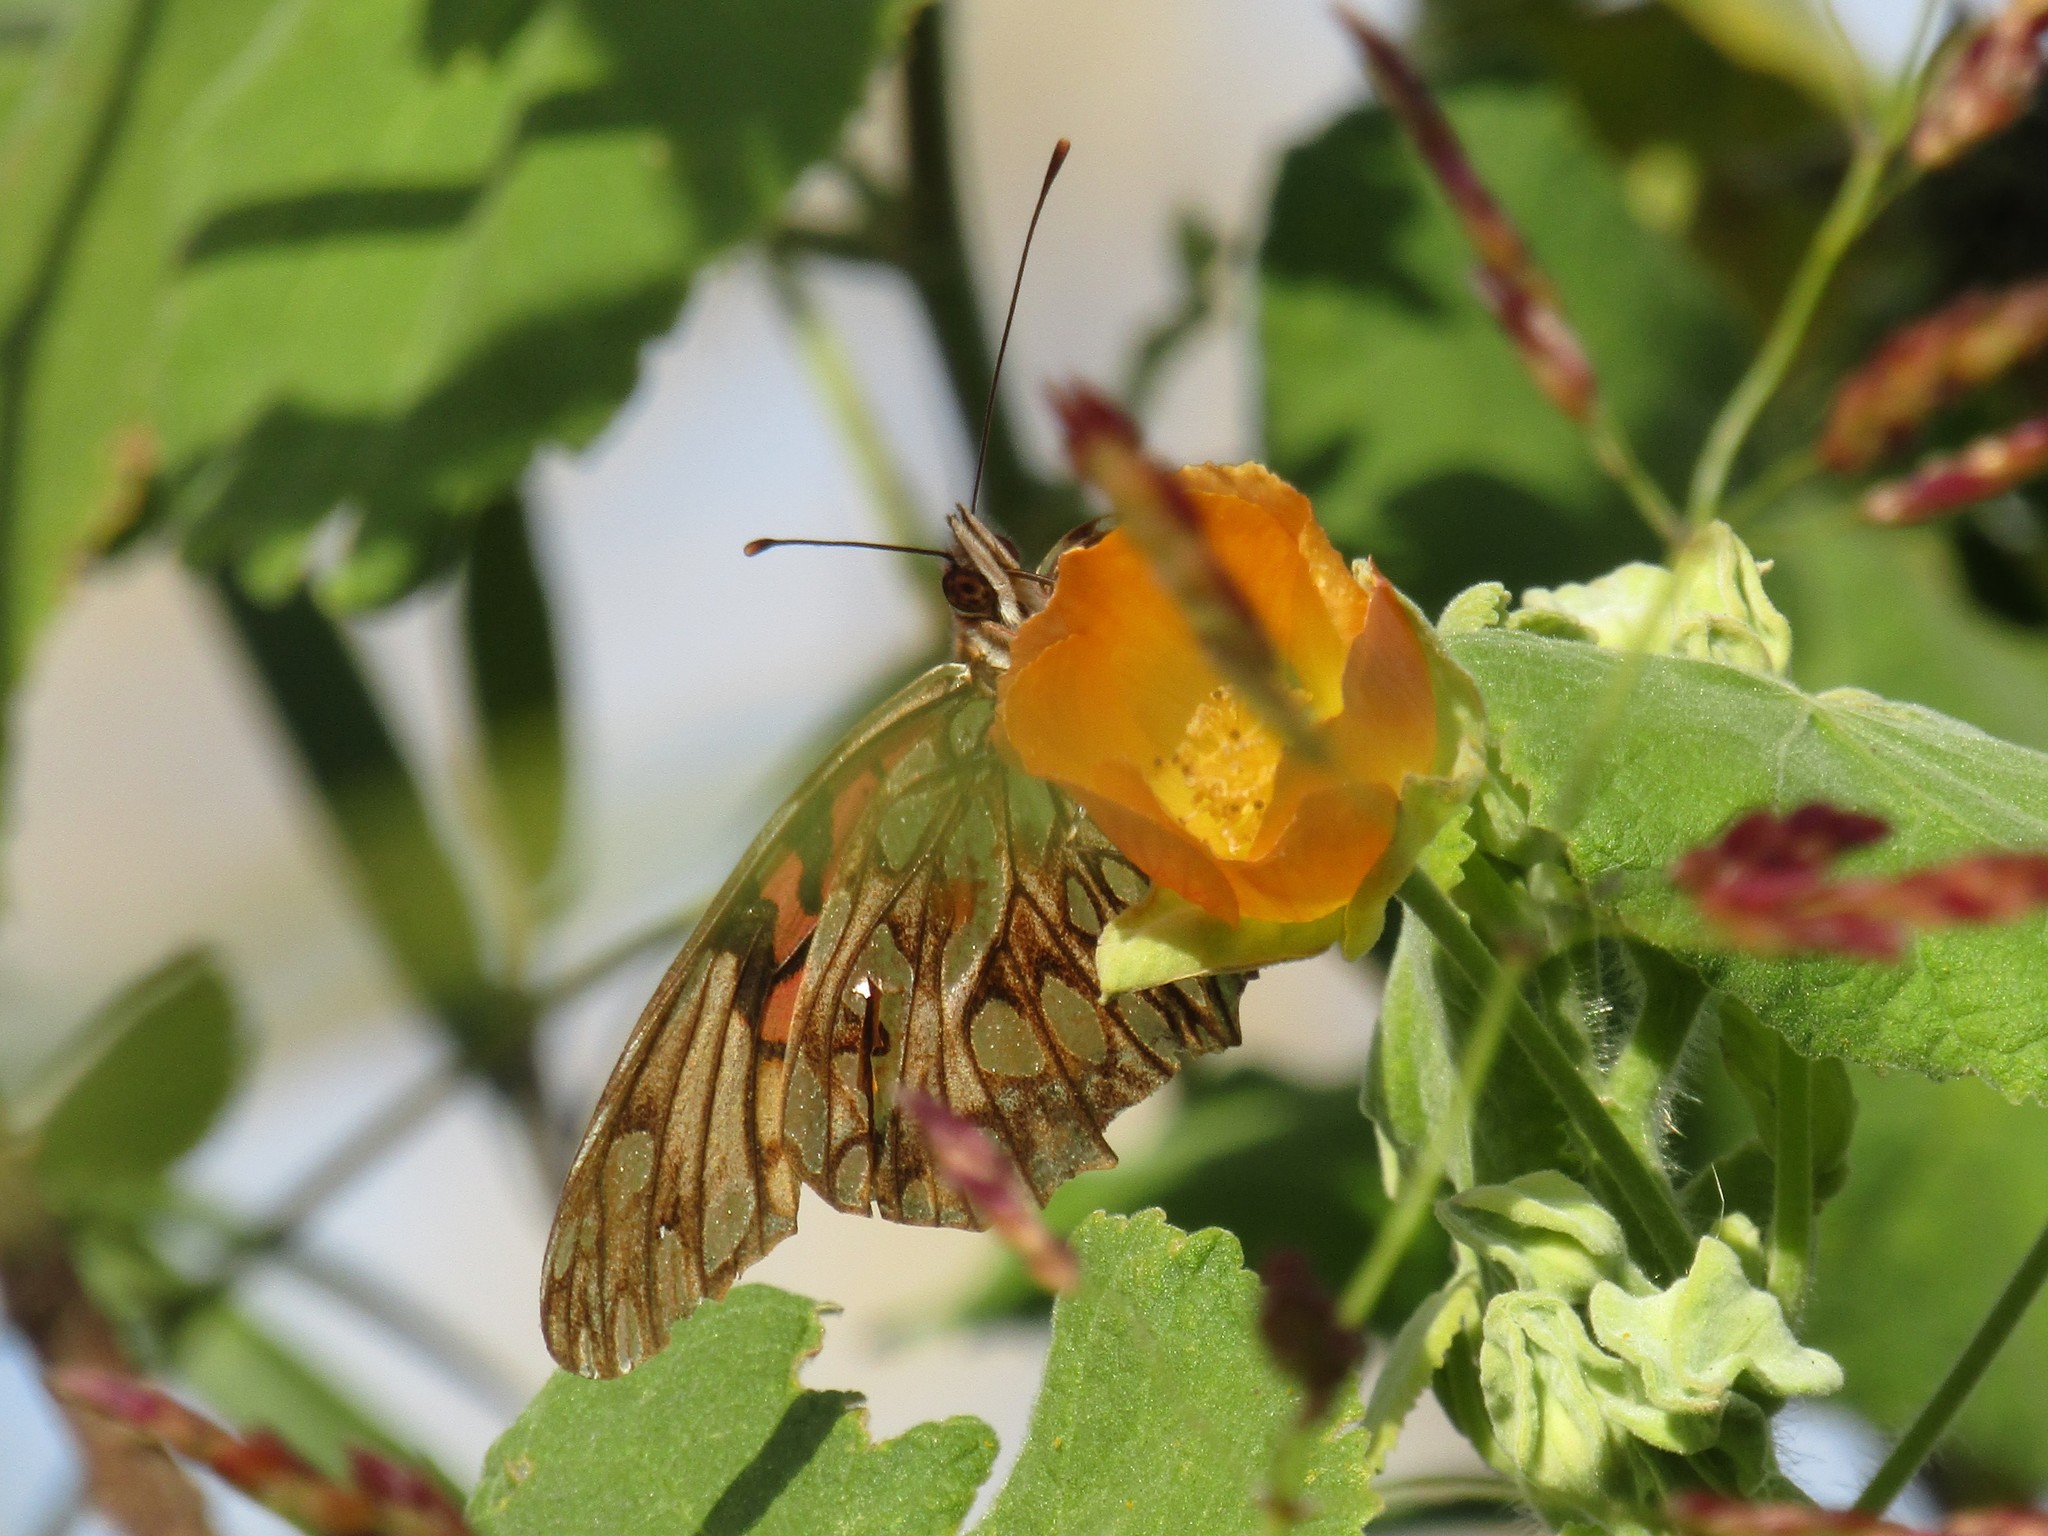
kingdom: Animalia
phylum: Arthropoda
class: Insecta
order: Lepidoptera
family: Nymphalidae
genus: Dione
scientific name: Dione moneta
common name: Mexican silverspot
